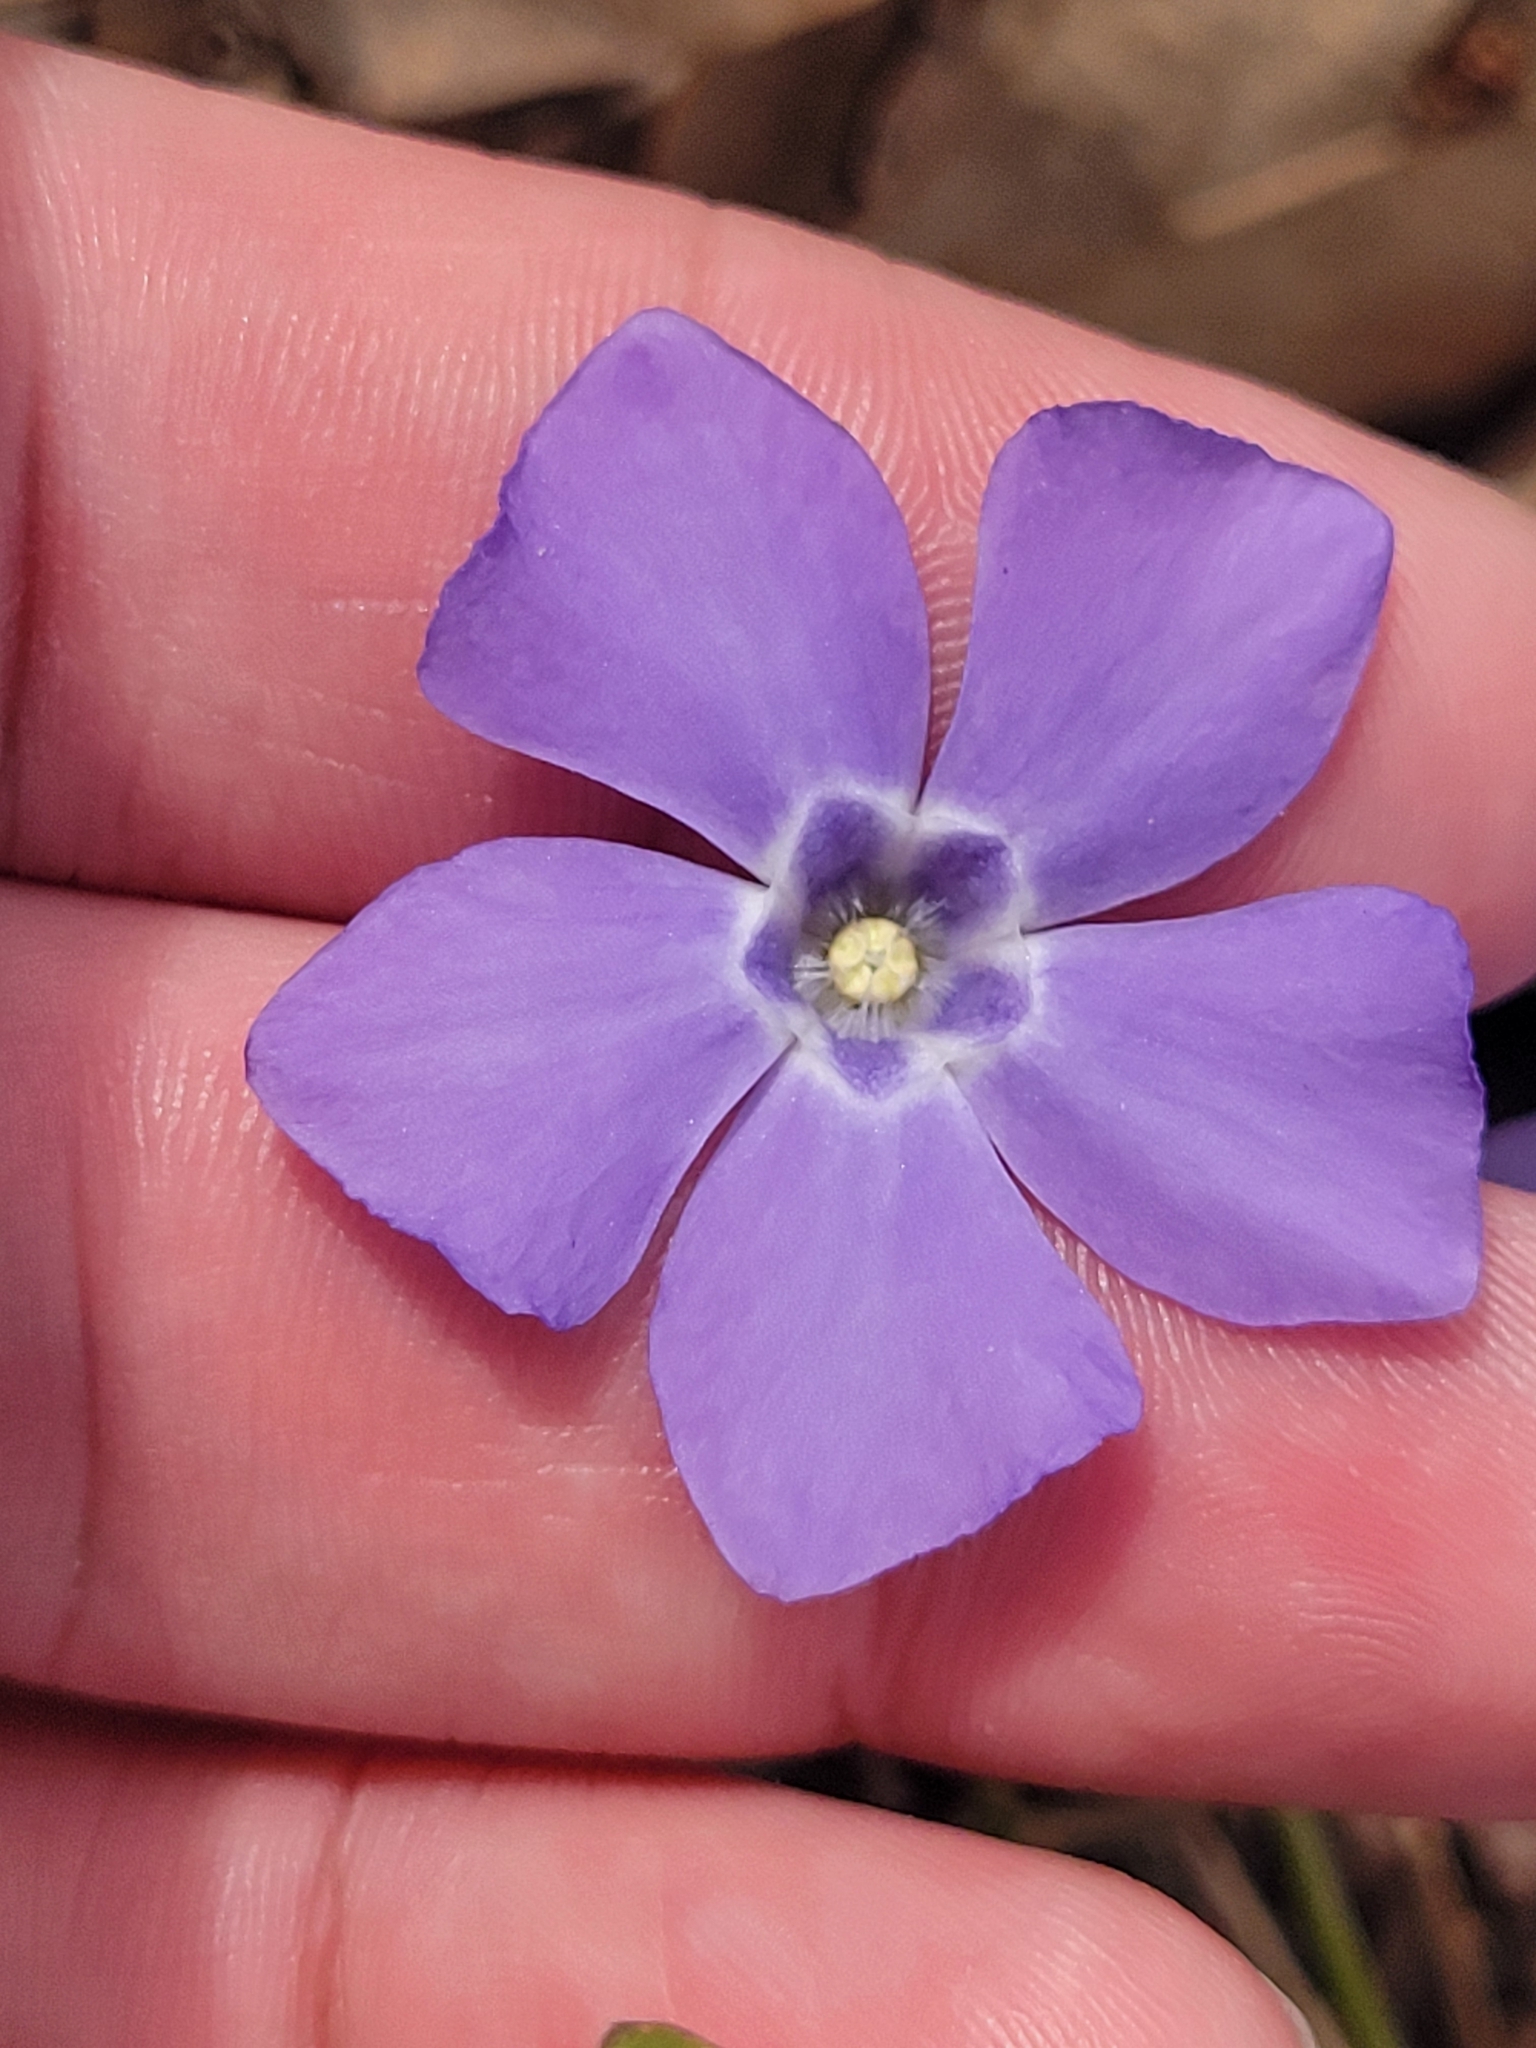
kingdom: Plantae
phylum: Tracheophyta
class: Magnoliopsida
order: Gentianales
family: Apocynaceae
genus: Vinca
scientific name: Vinca minor
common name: Lesser periwinkle
